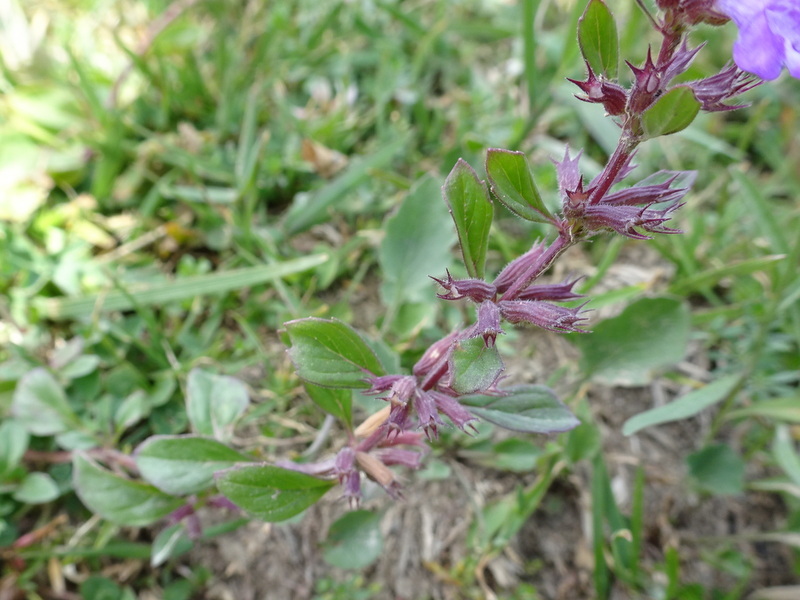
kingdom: Plantae
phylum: Tracheophyta
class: Magnoliopsida
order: Lamiales
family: Lamiaceae
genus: Clinopodium
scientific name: Clinopodium alpinum
